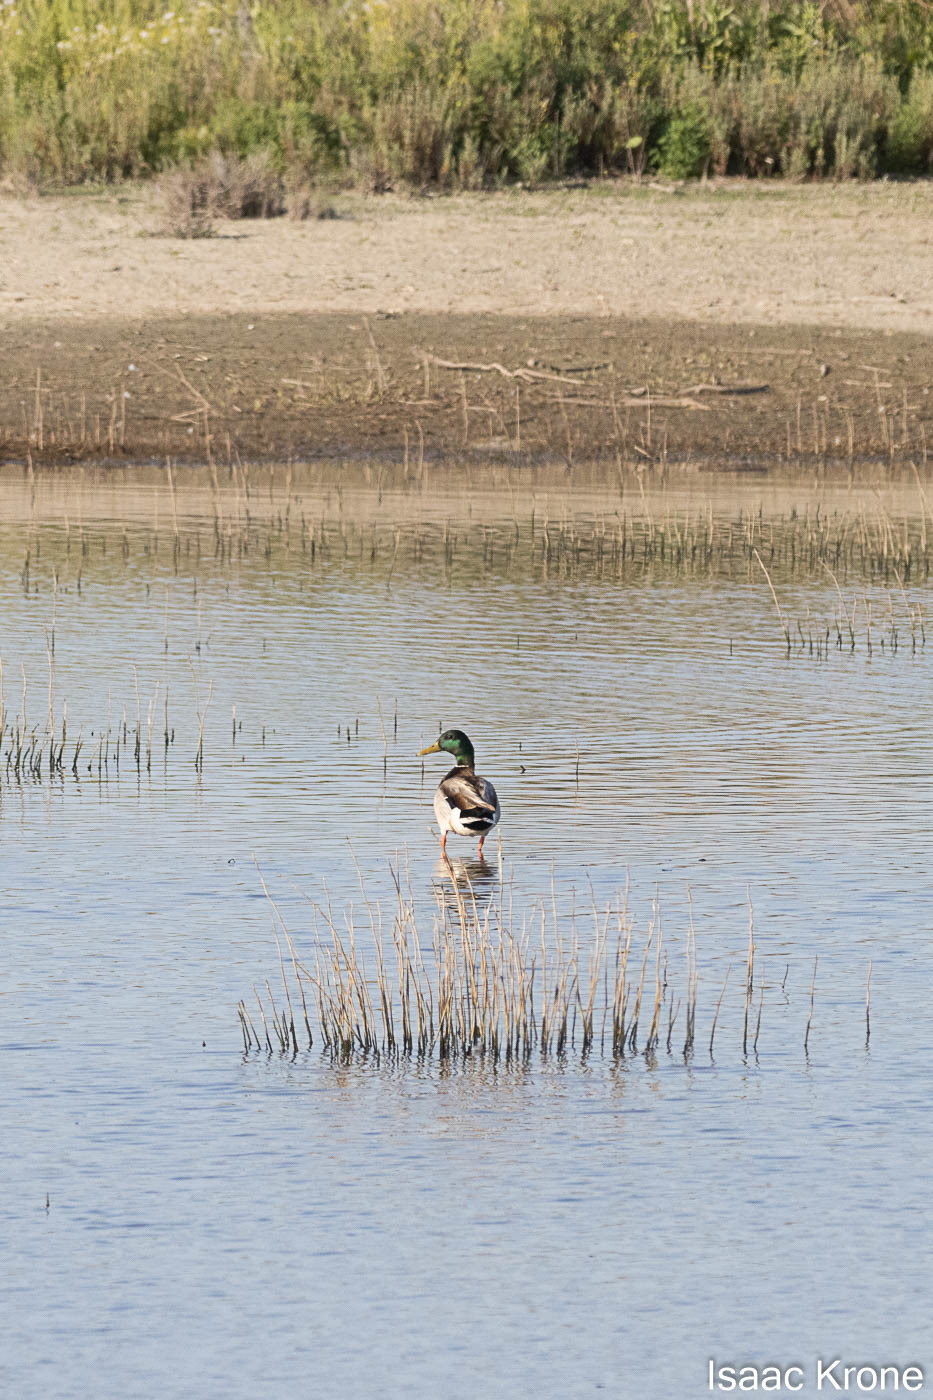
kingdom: Animalia
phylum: Chordata
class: Aves
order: Anseriformes
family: Anatidae
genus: Anas
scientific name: Anas platyrhynchos
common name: Mallard
